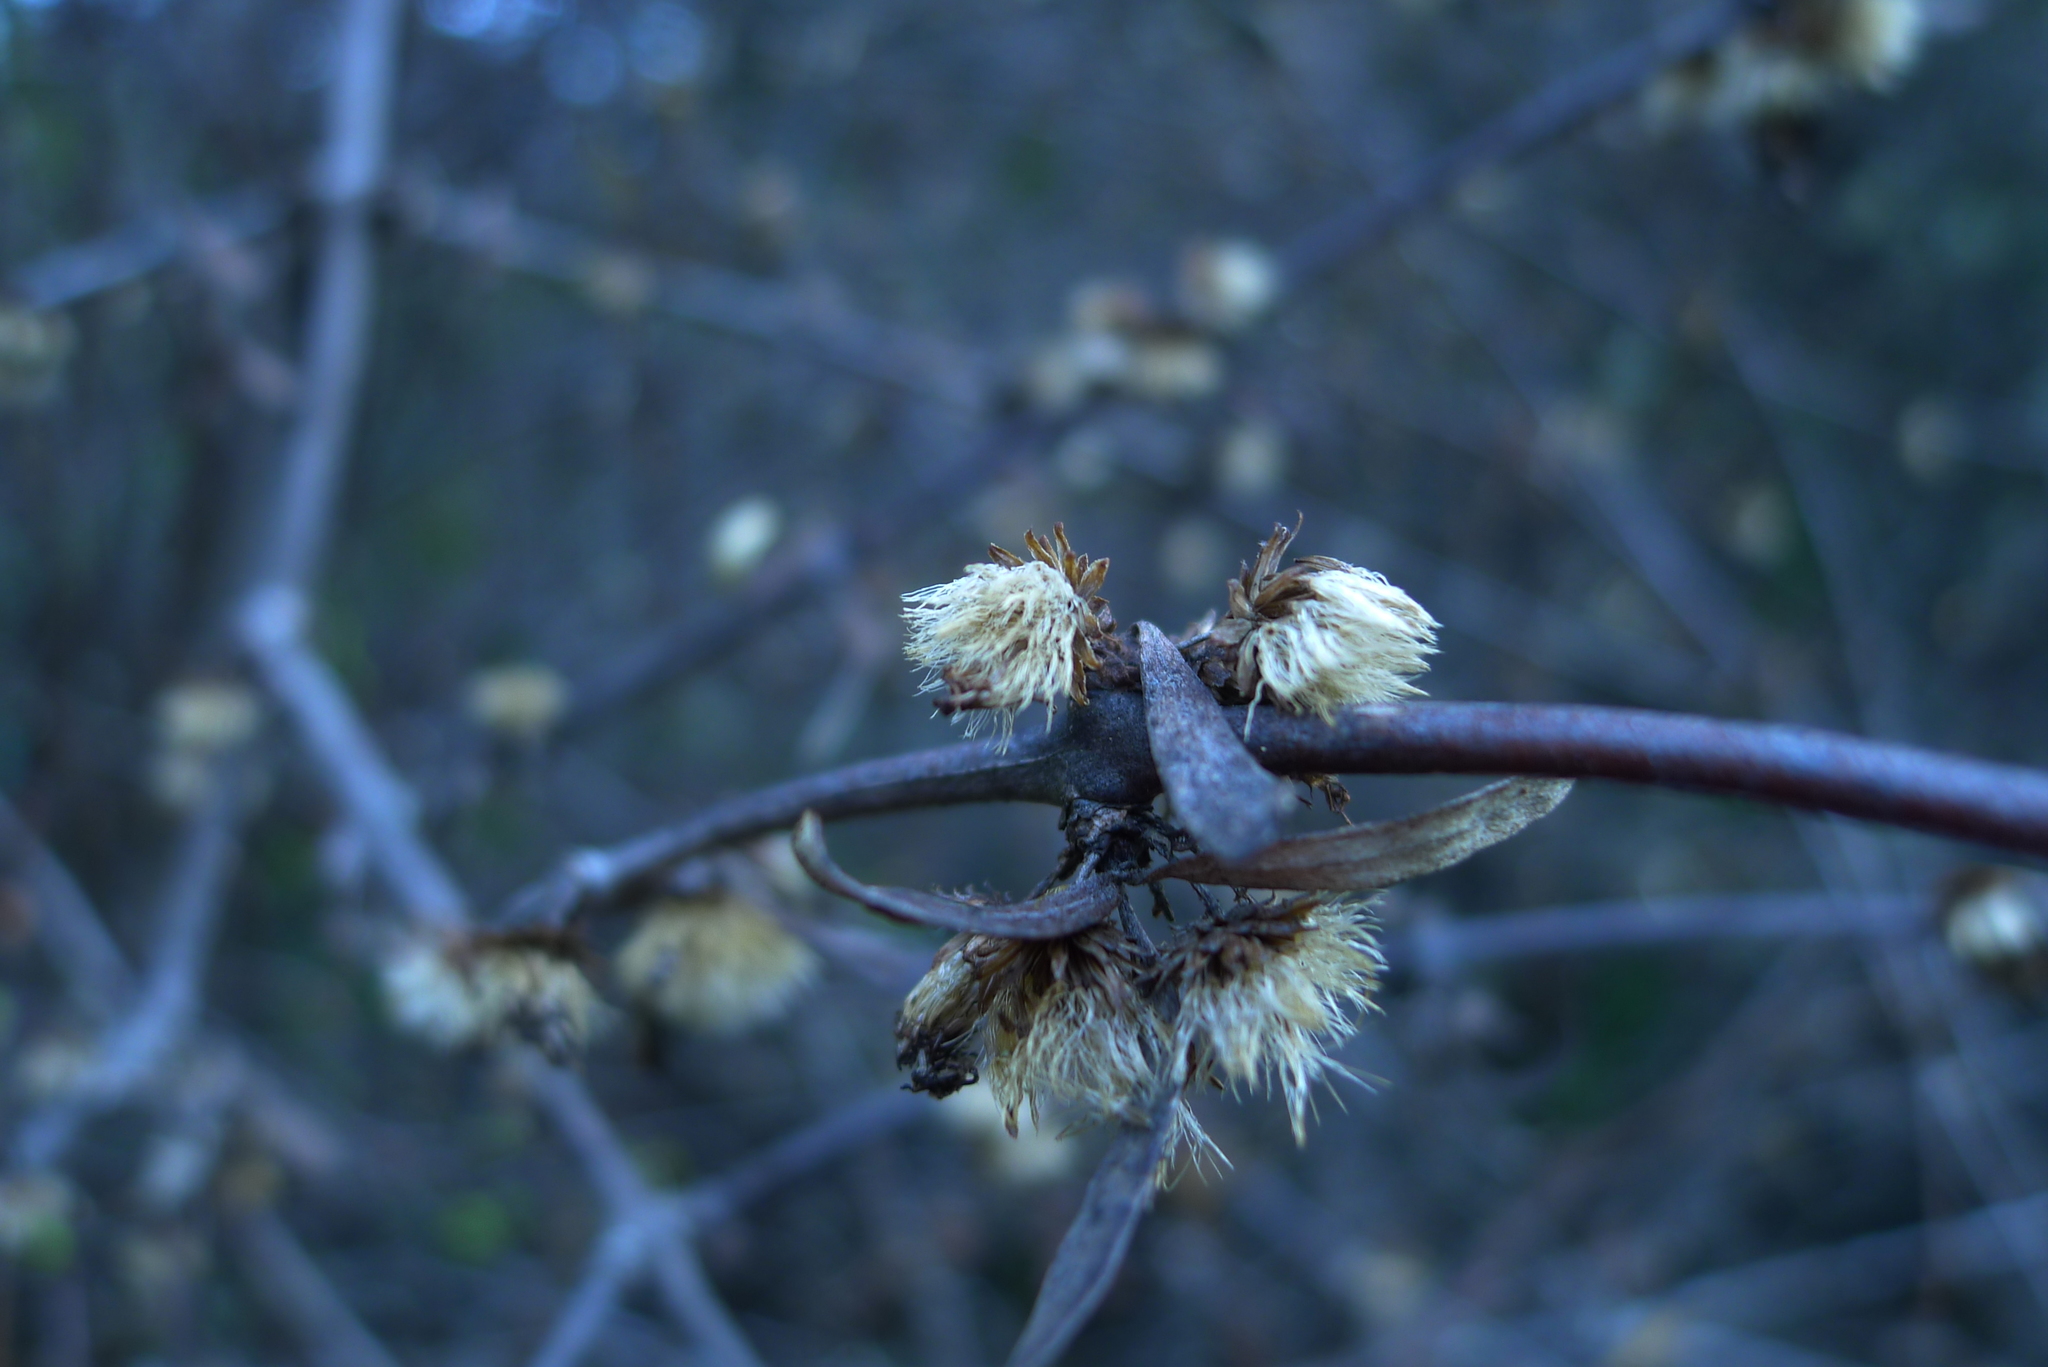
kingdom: Plantae
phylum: Tracheophyta
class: Magnoliopsida
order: Asterales
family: Asteraceae
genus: Olearia
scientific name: Olearia odorata
